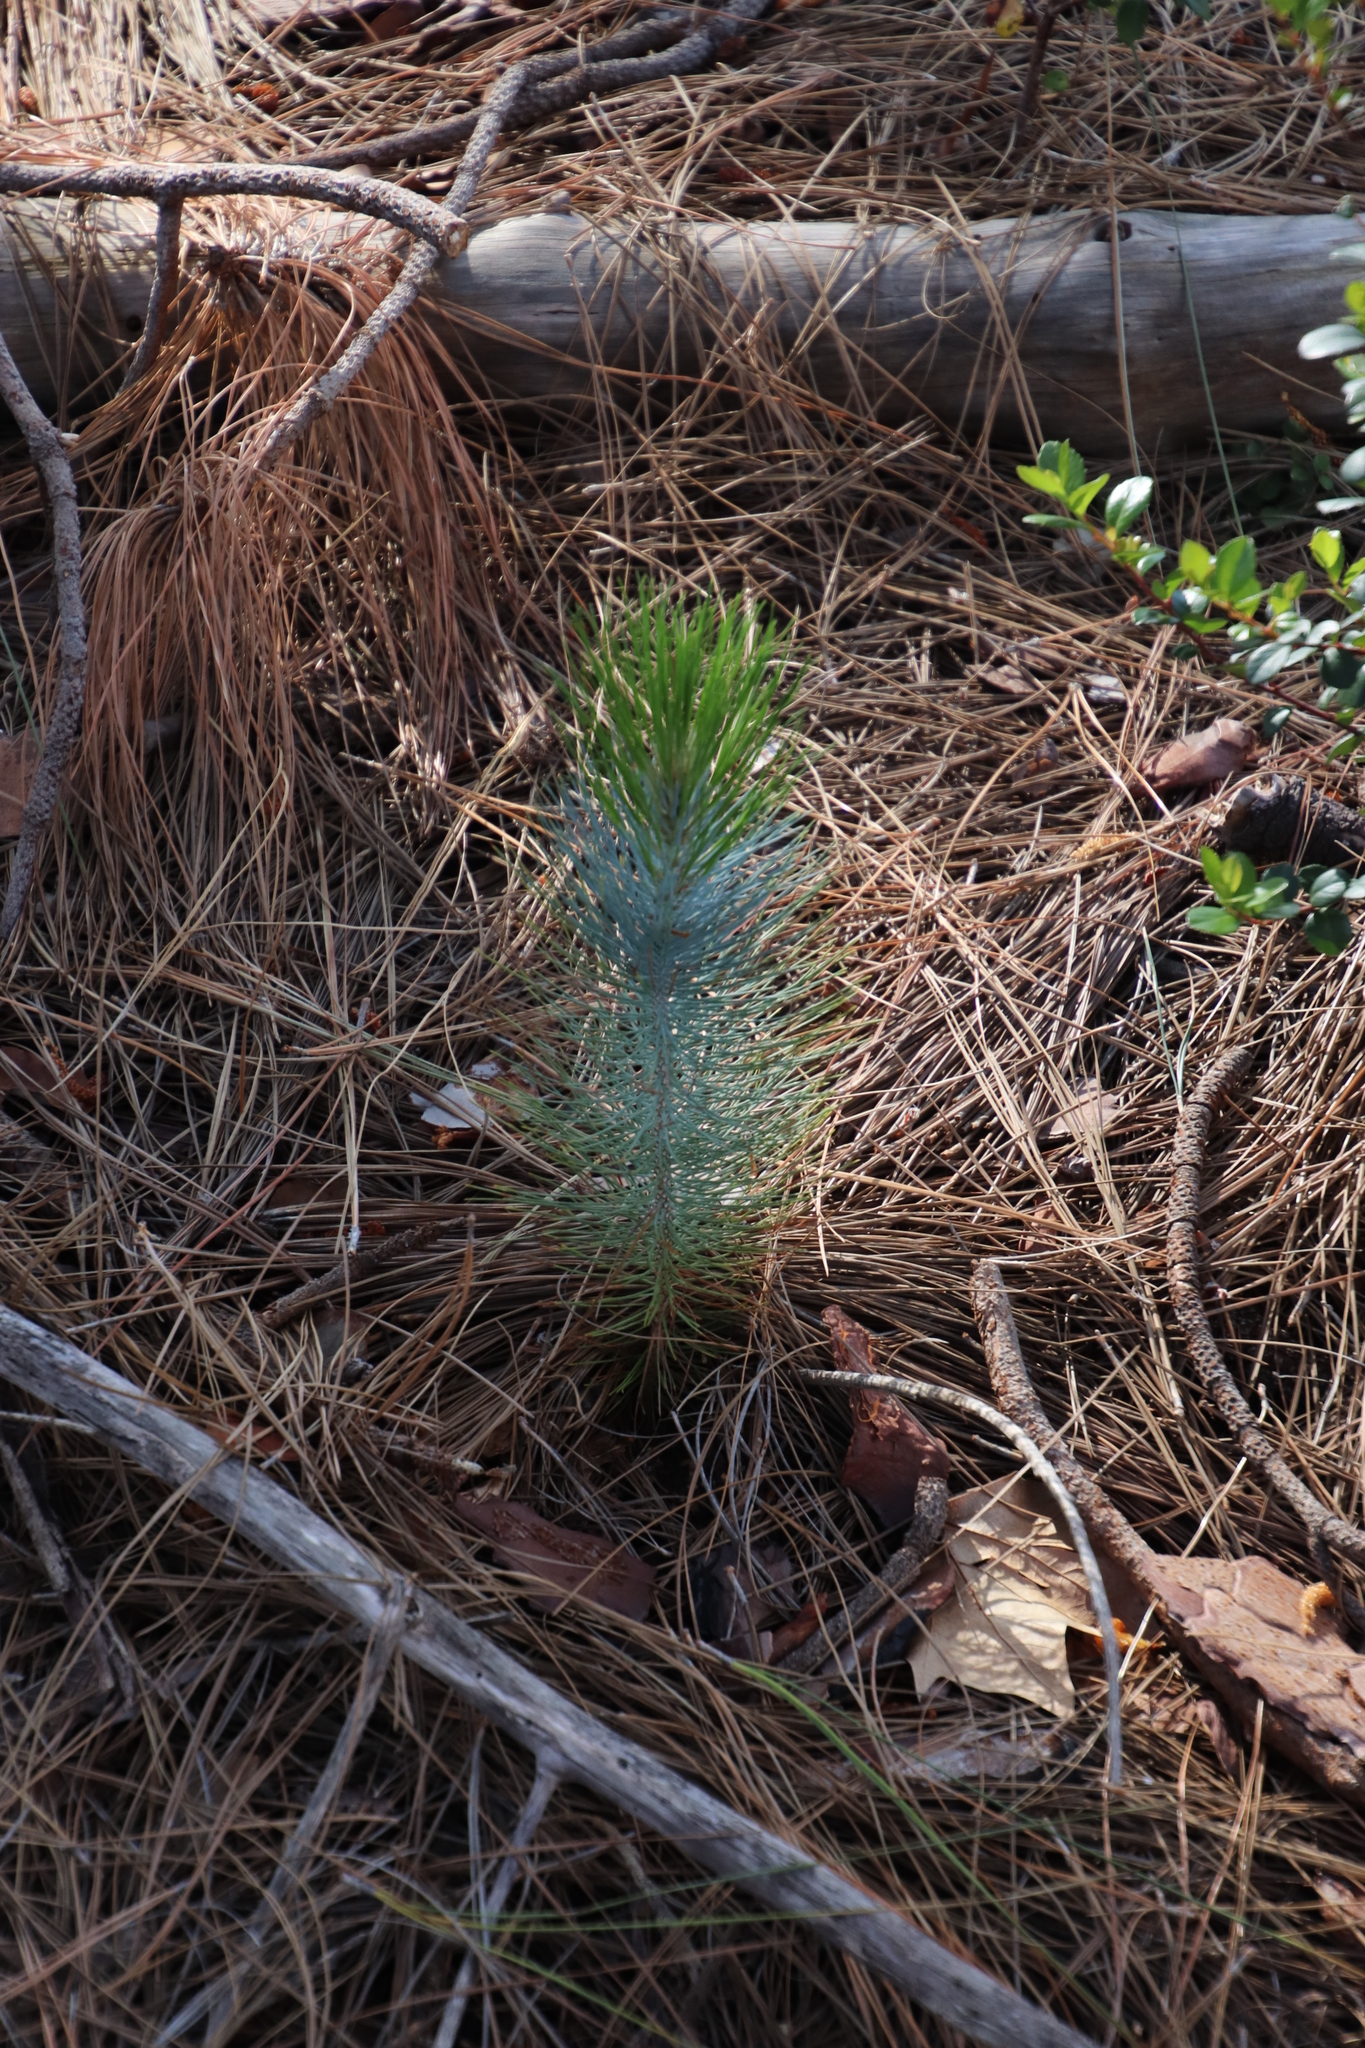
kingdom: Plantae
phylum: Tracheophyta
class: Pinopsida
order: Pinales
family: Pinaceae
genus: Pinus
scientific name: Pinus canariensis
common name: Canary islands pine
